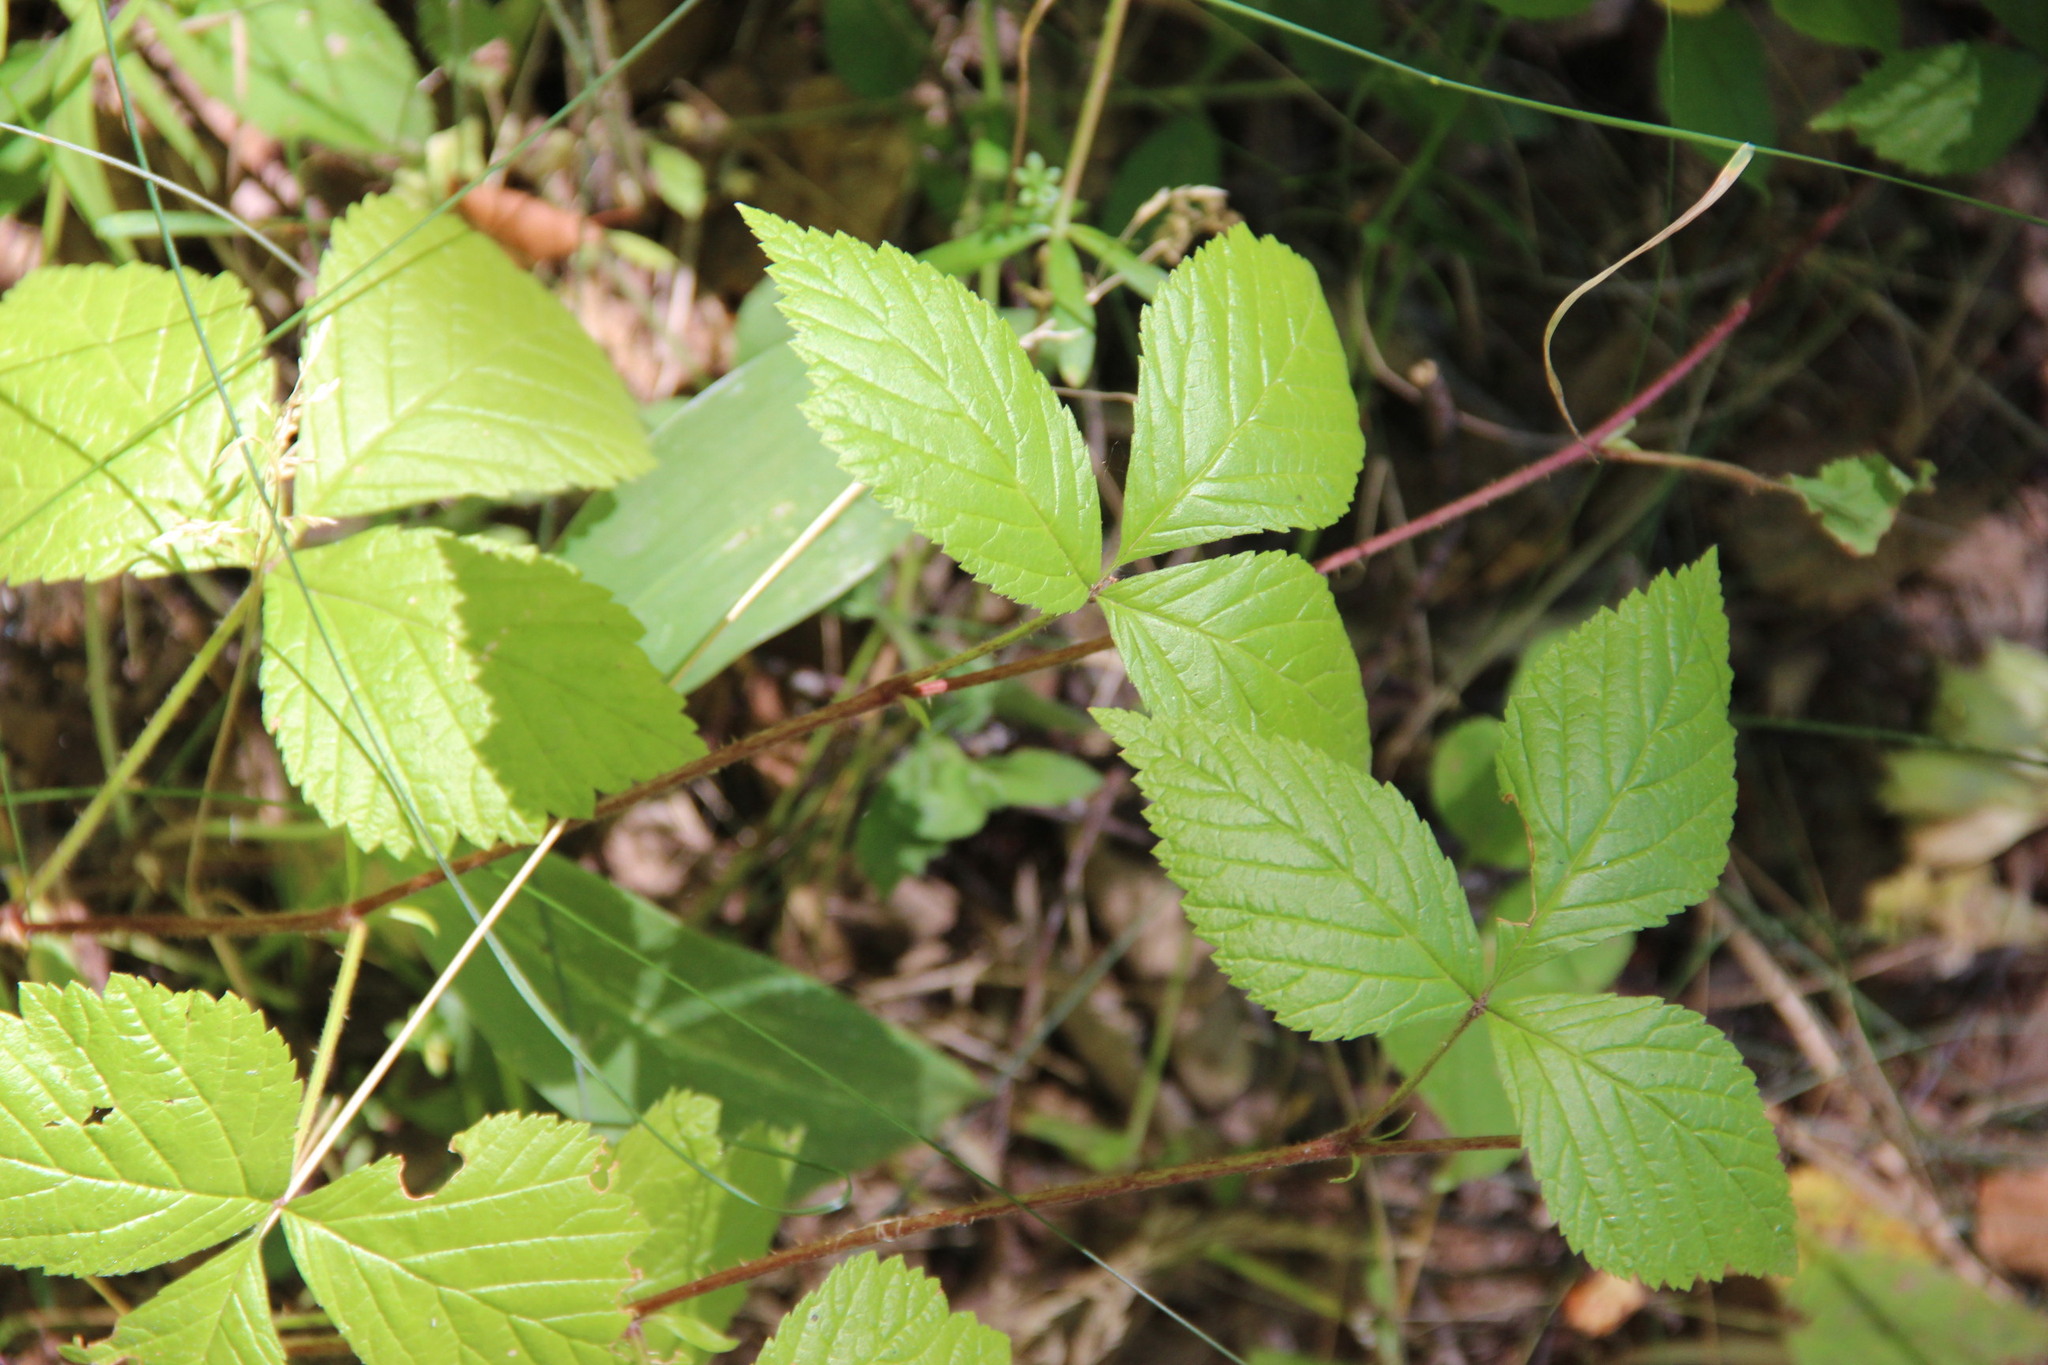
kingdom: Plantae
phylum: Tracheophyta
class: Magnoliopsida
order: Rosales
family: Rosaceae
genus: Rubus
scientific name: Rubus saxatilis
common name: Stone bramble
